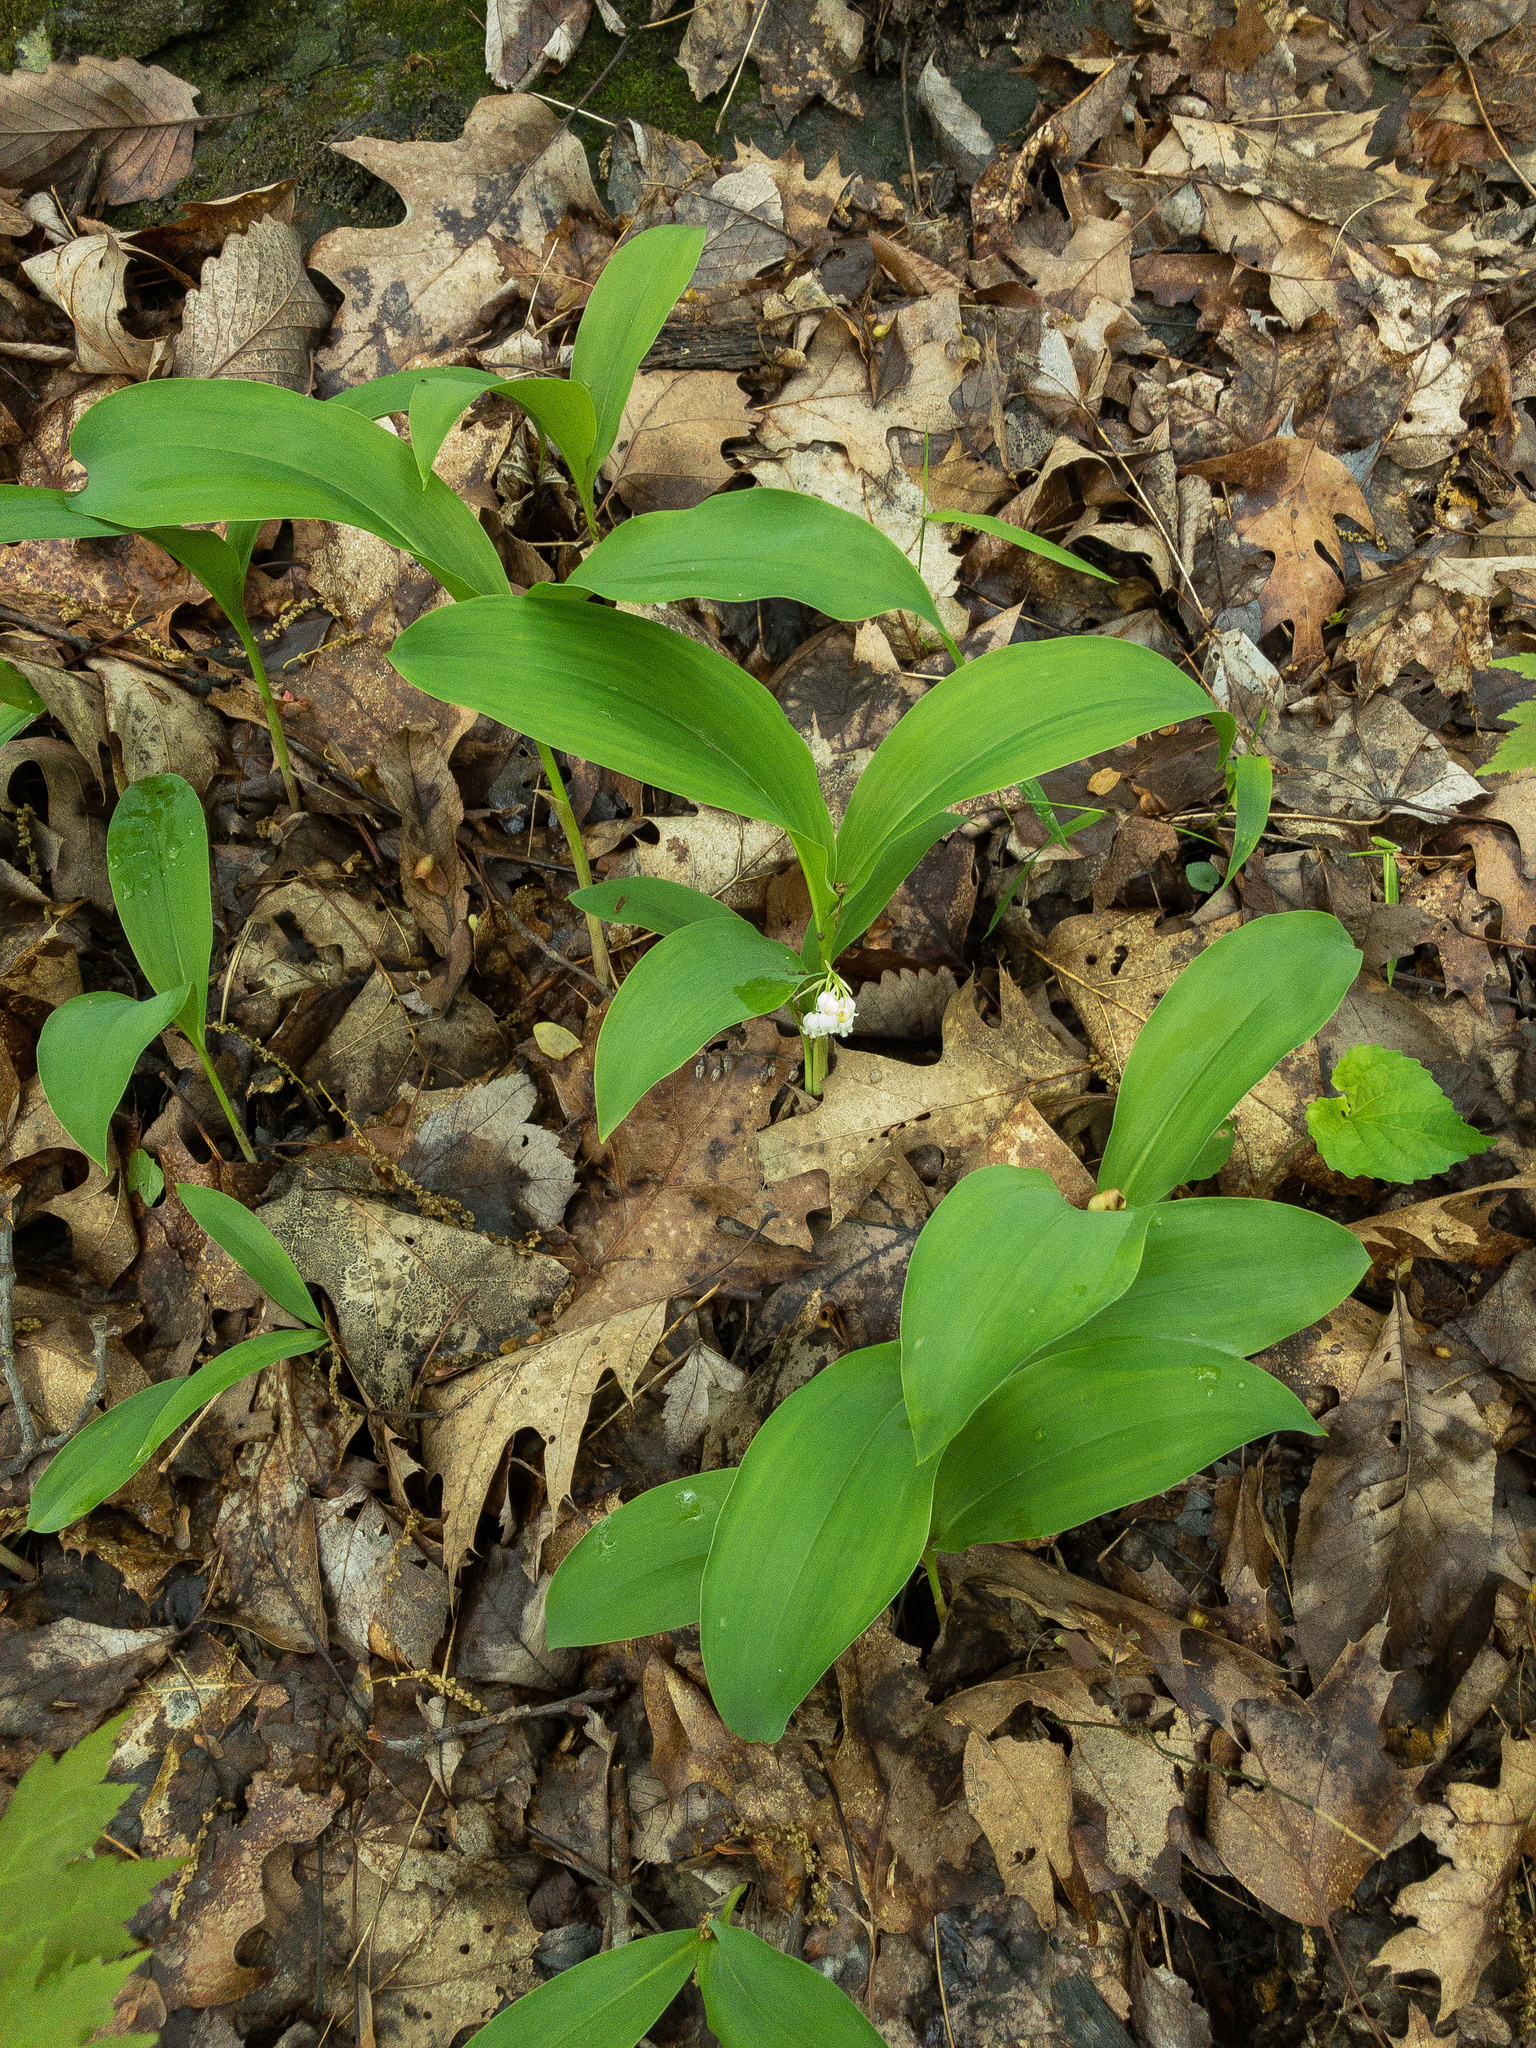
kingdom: Plantae
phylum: Tracheophyta
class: Liliopsida
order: Asparagales
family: Asparagaceae
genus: Convallaria
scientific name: Convallaria pseudomajalis
